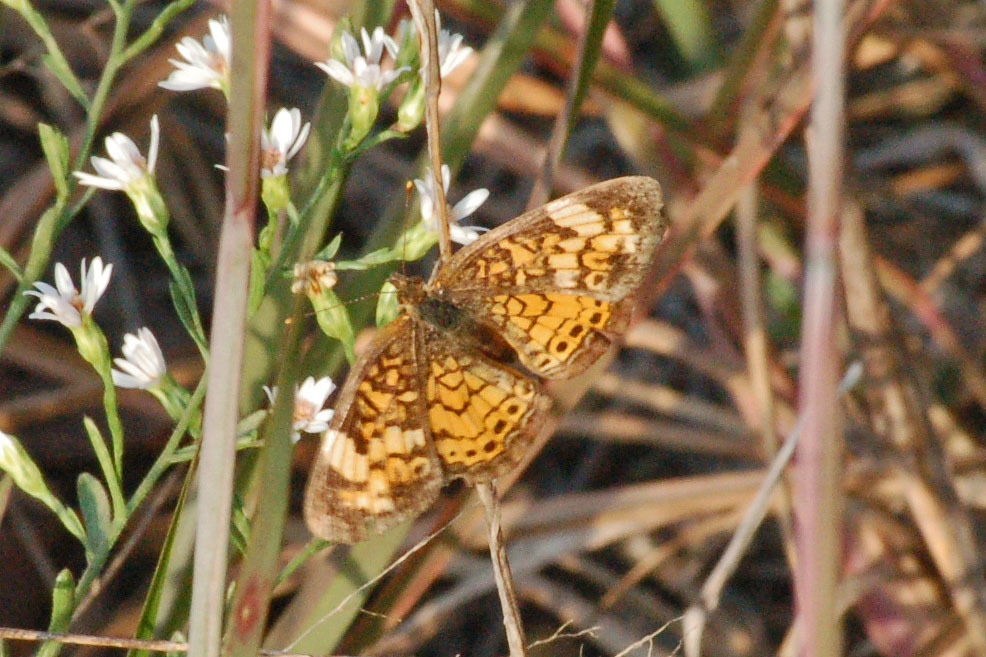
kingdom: Animalia
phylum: Arthropoda
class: Insecta
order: Lepidoptera
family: Nymphalidae
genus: Phyciodes
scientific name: Phyciodes tharos
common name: Pearl crescent
